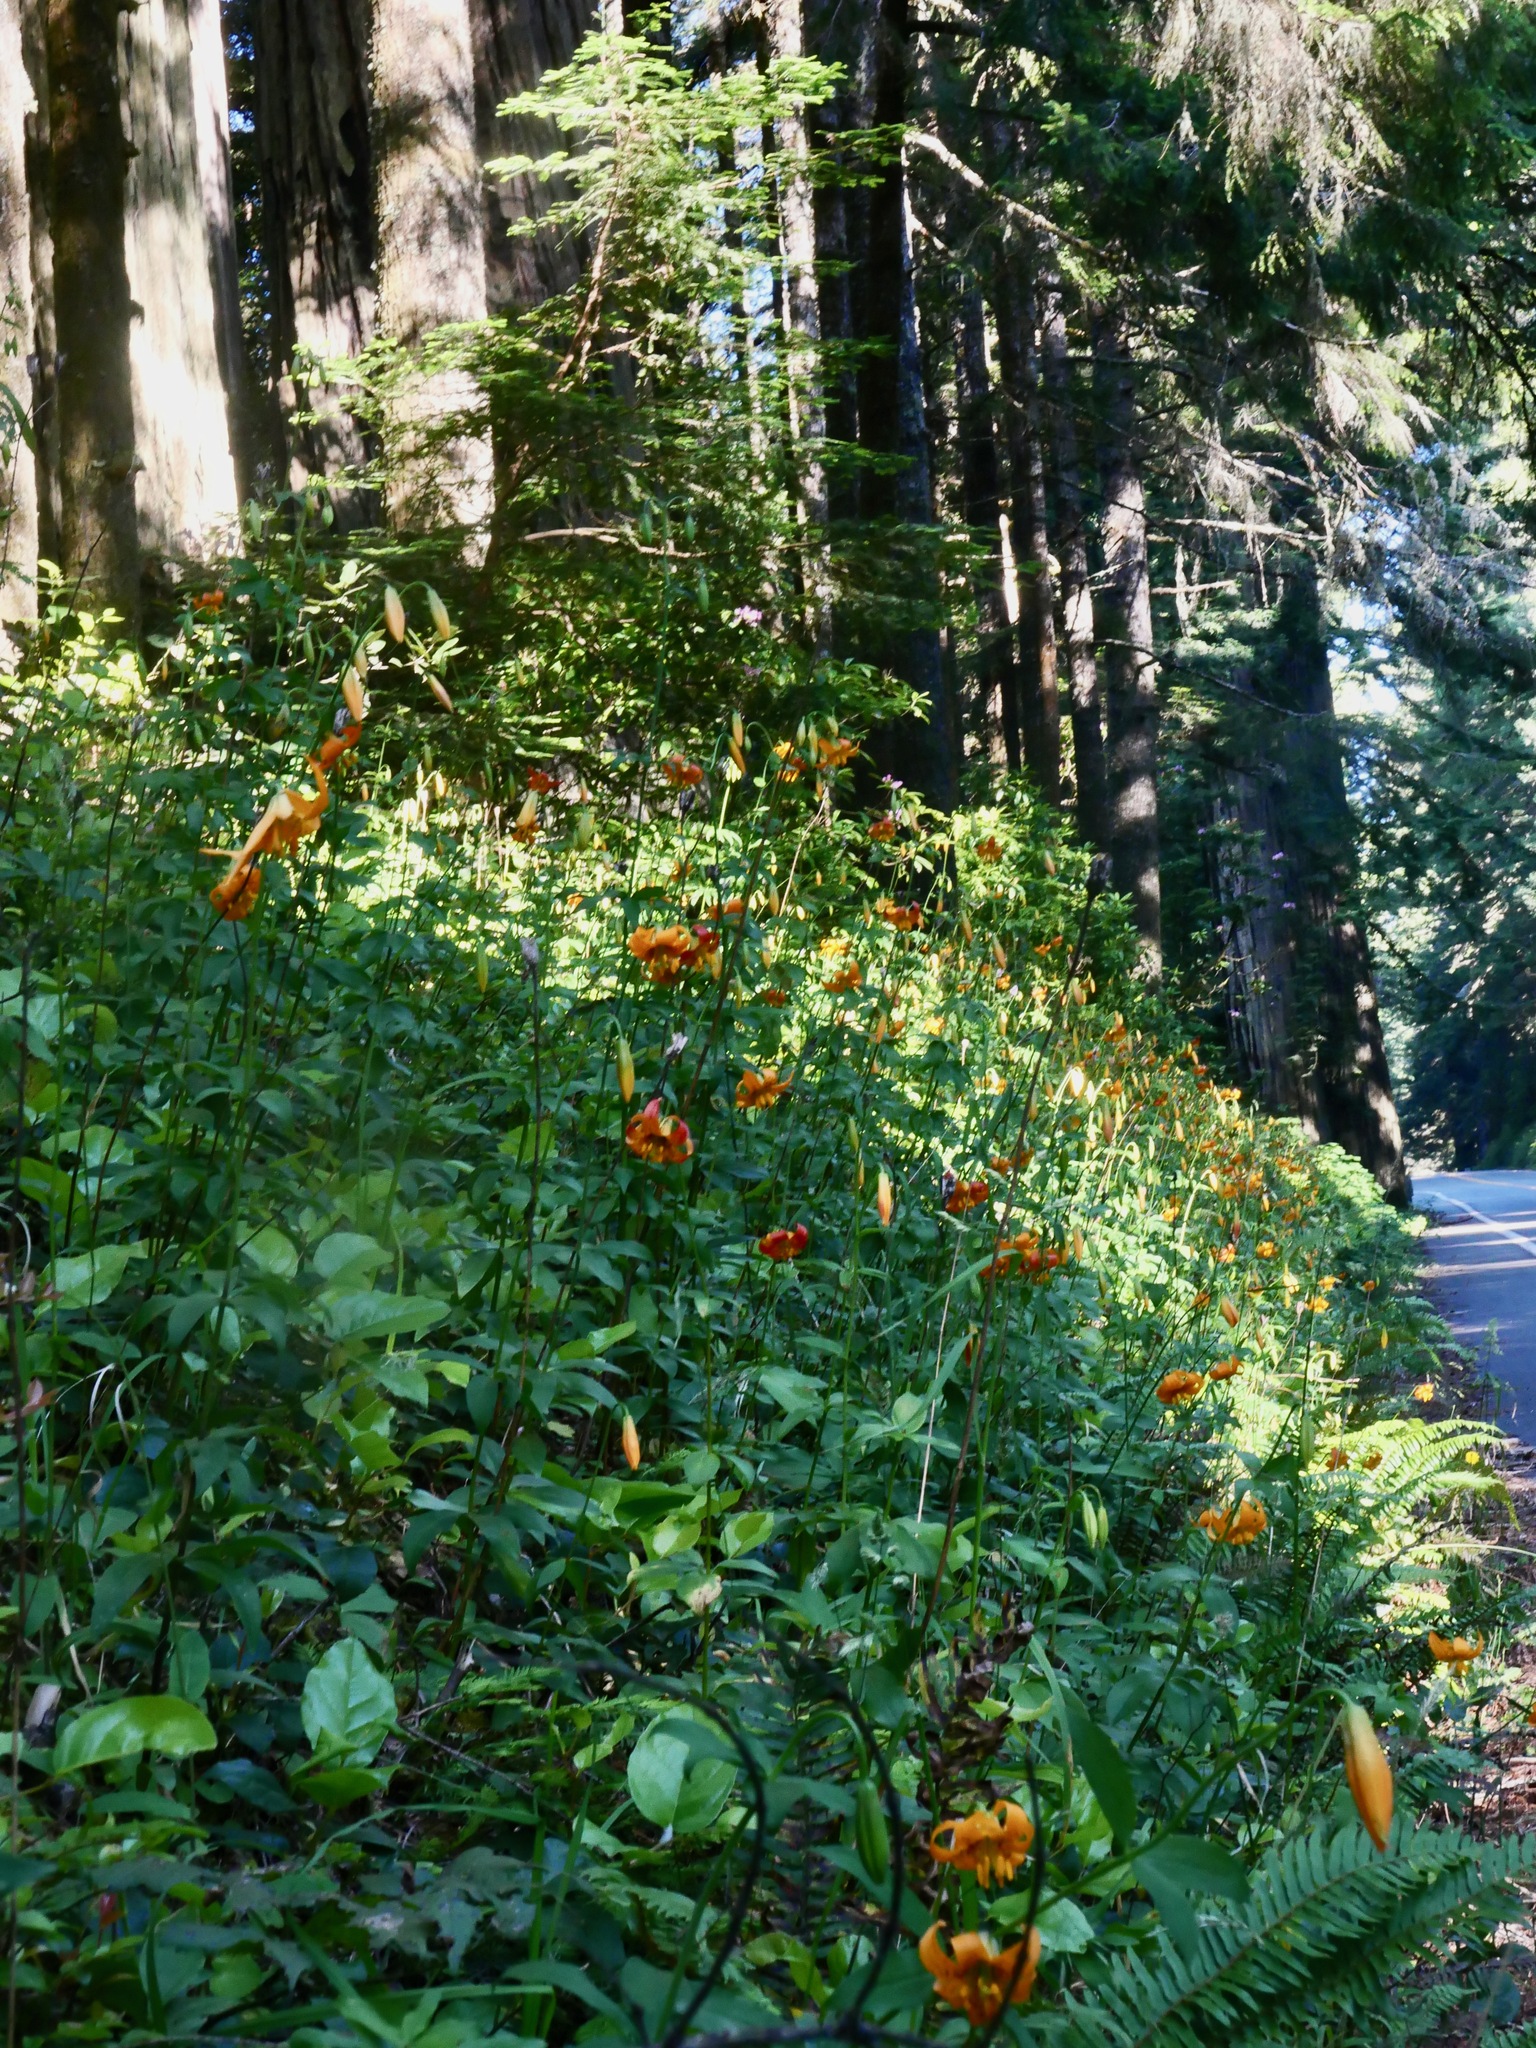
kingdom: Plantae
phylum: Tracheophyta
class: Liliopsida
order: Liliales
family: Liliaceae
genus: Lilium
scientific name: Lilium columbianum
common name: Columbia lily
